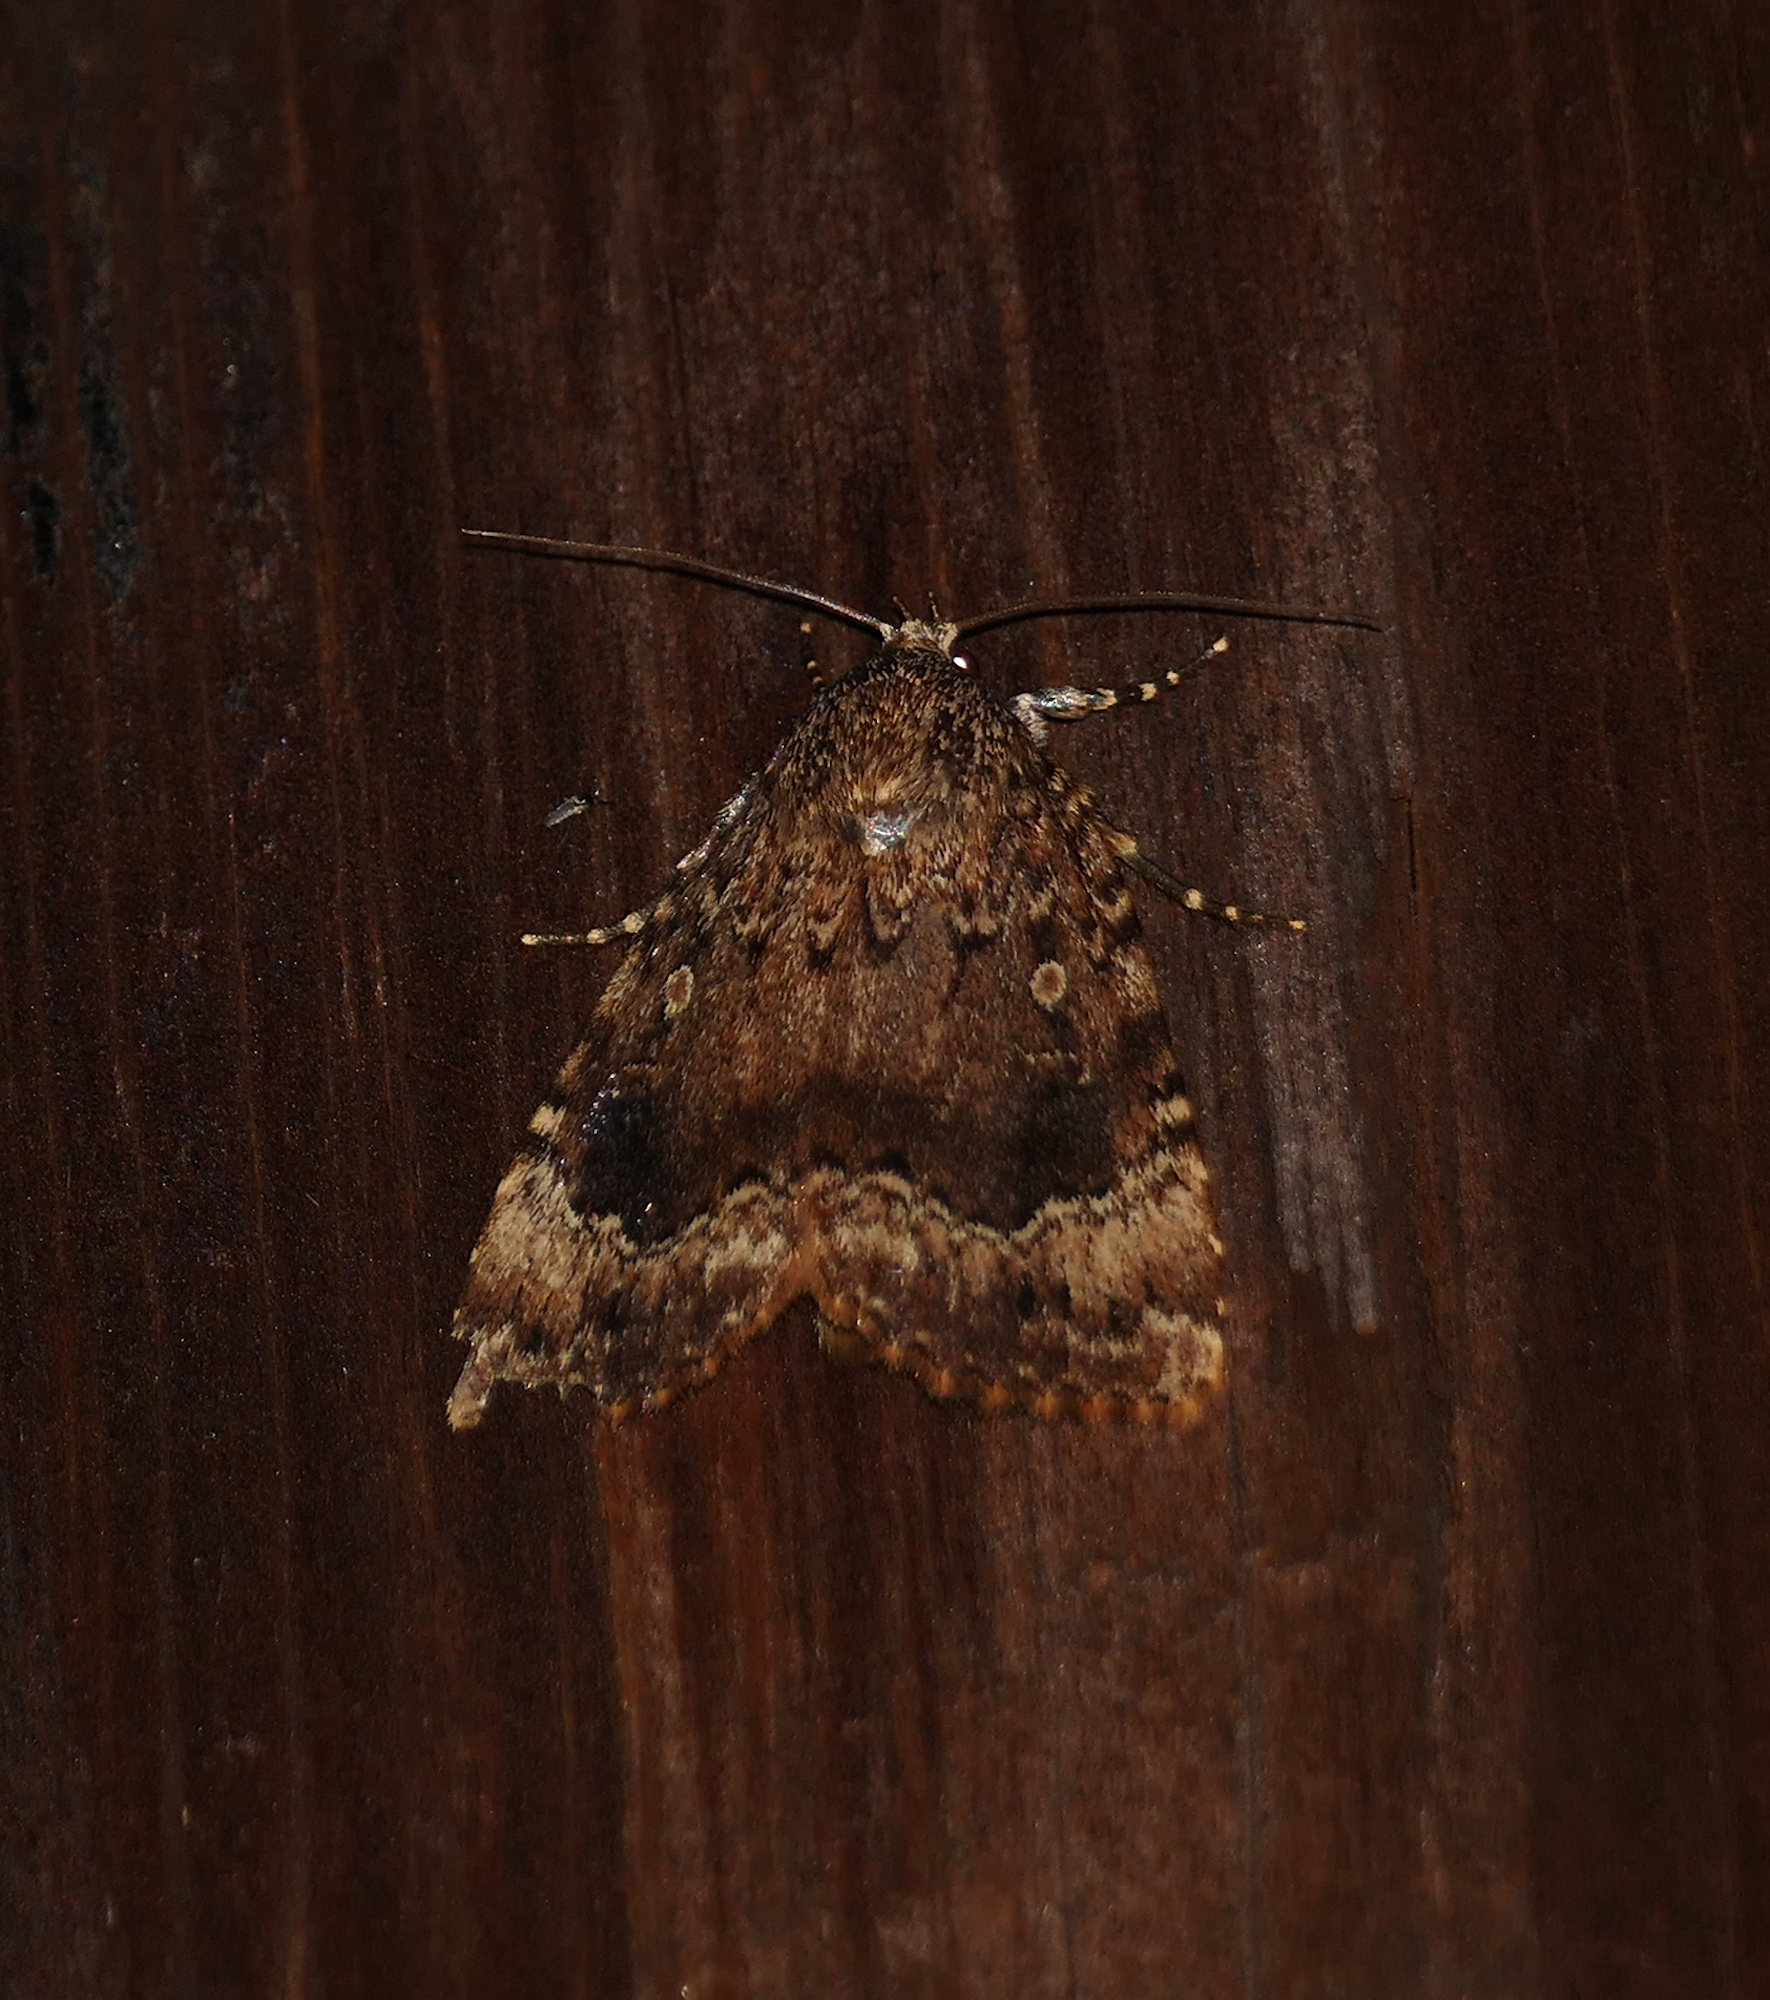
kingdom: Animalia
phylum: Arthropoda
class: Insecta
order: Lepidoptera
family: Noctuidae
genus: Amphipyra
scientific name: Amphipyra pyramidoides
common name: American copper underwing
